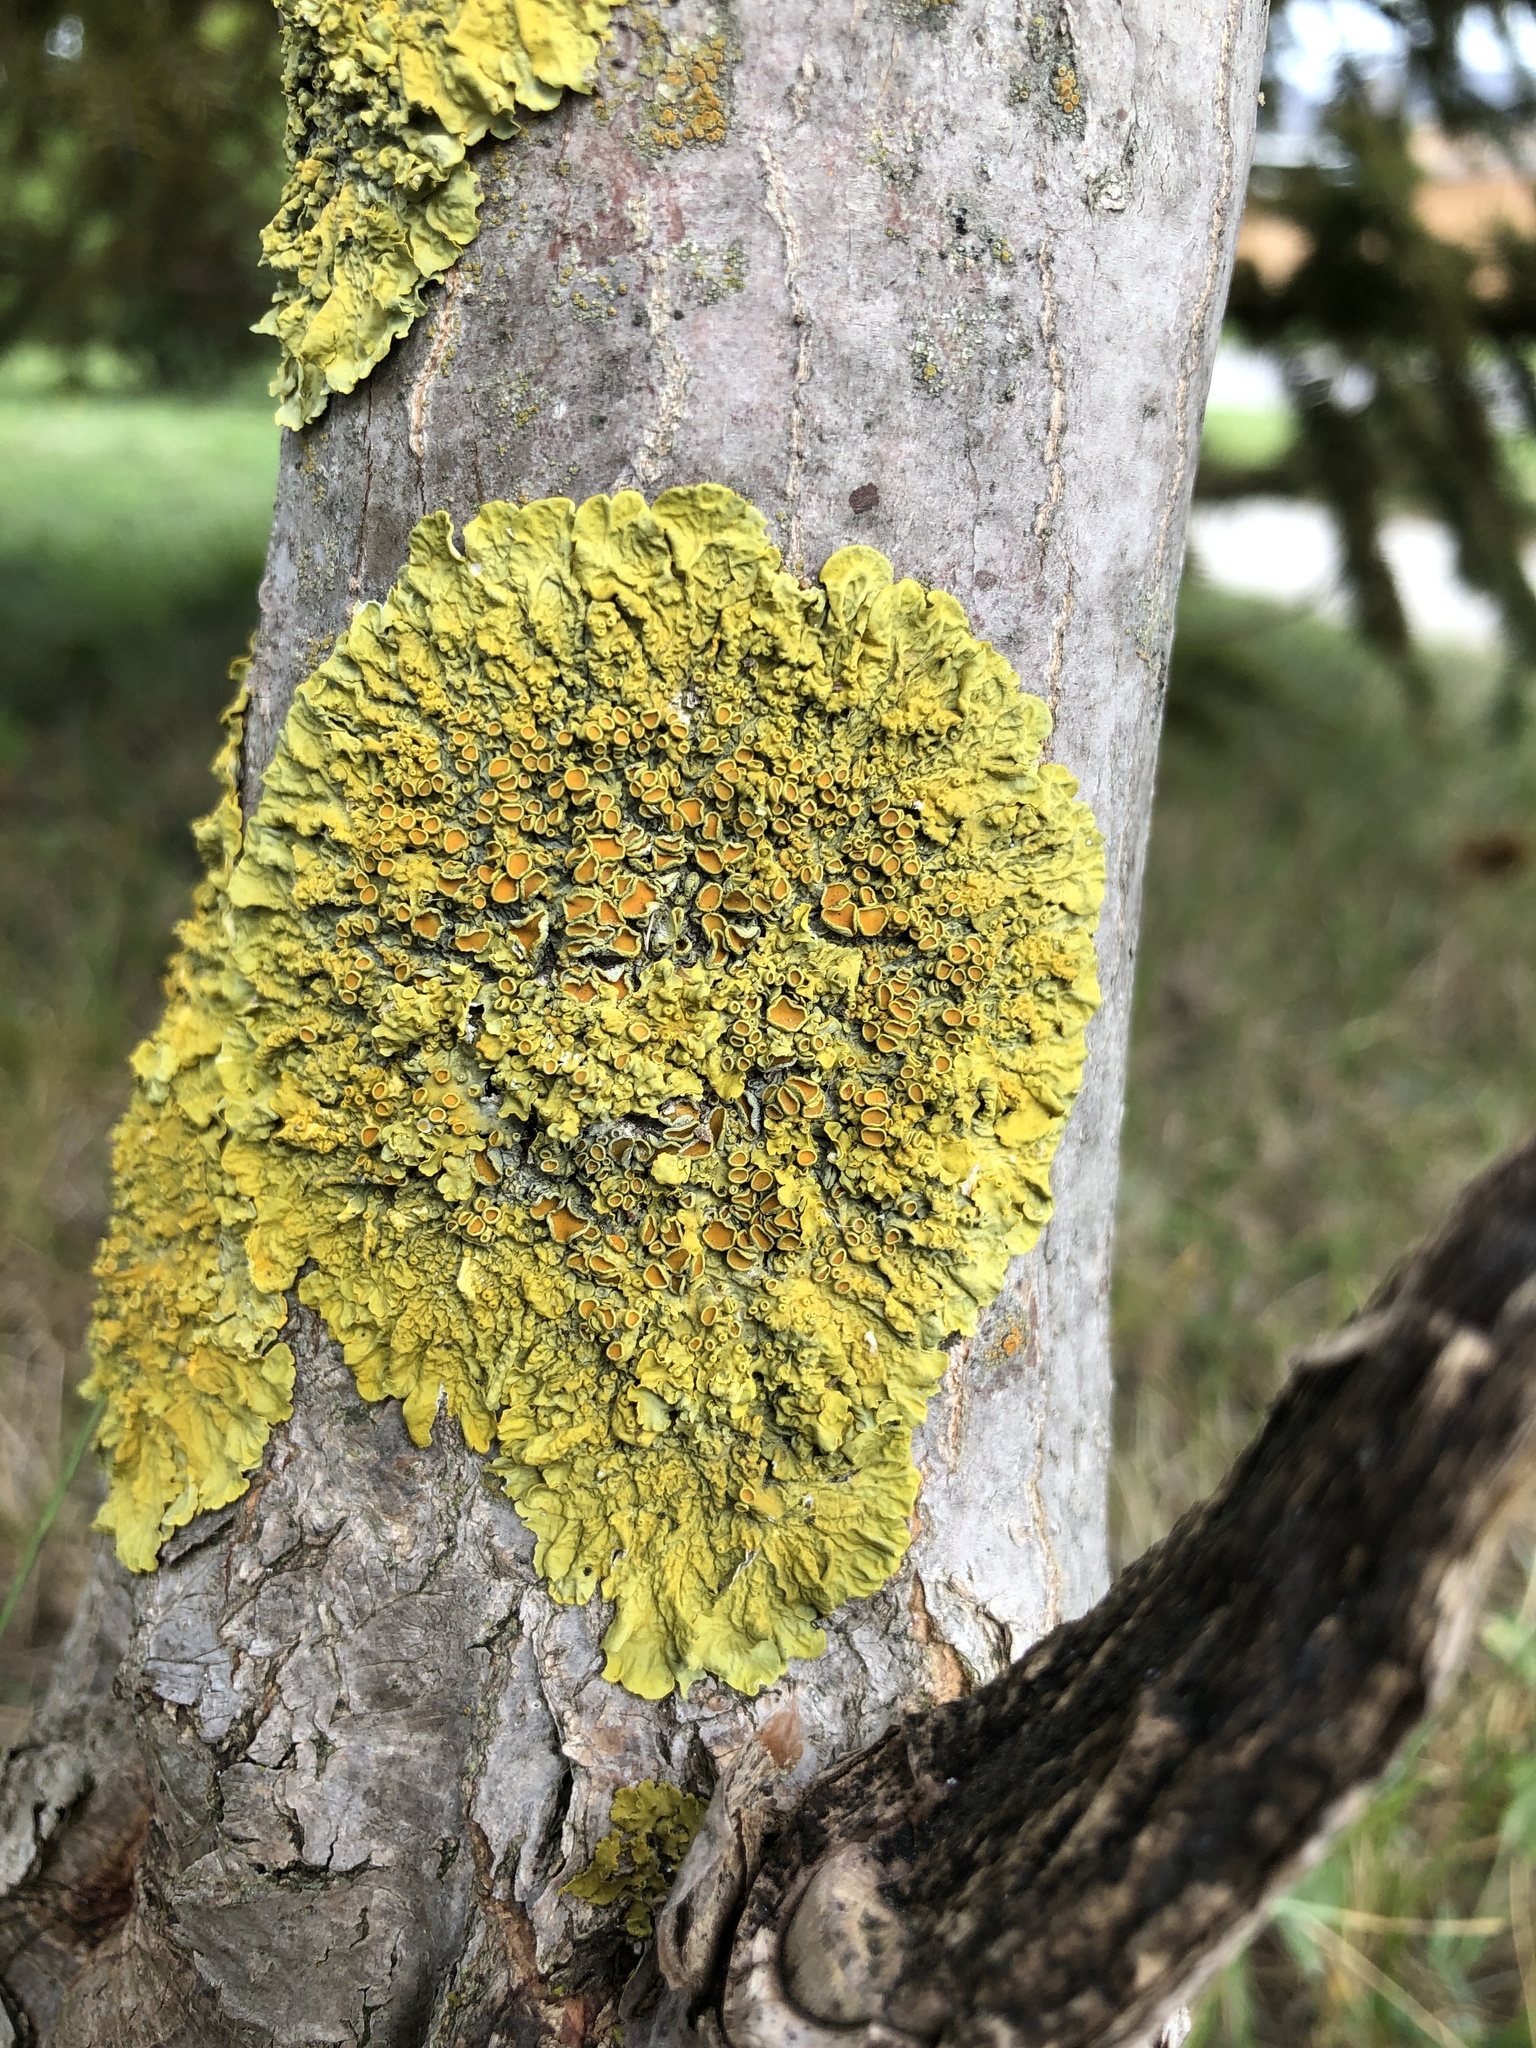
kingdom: Fungi
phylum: Ascomycota
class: Lecanoromycetes
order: Teloschistales
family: Teloschistaceae
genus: Xanthoria
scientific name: Xanthoria parietina
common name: Common orange lichen
